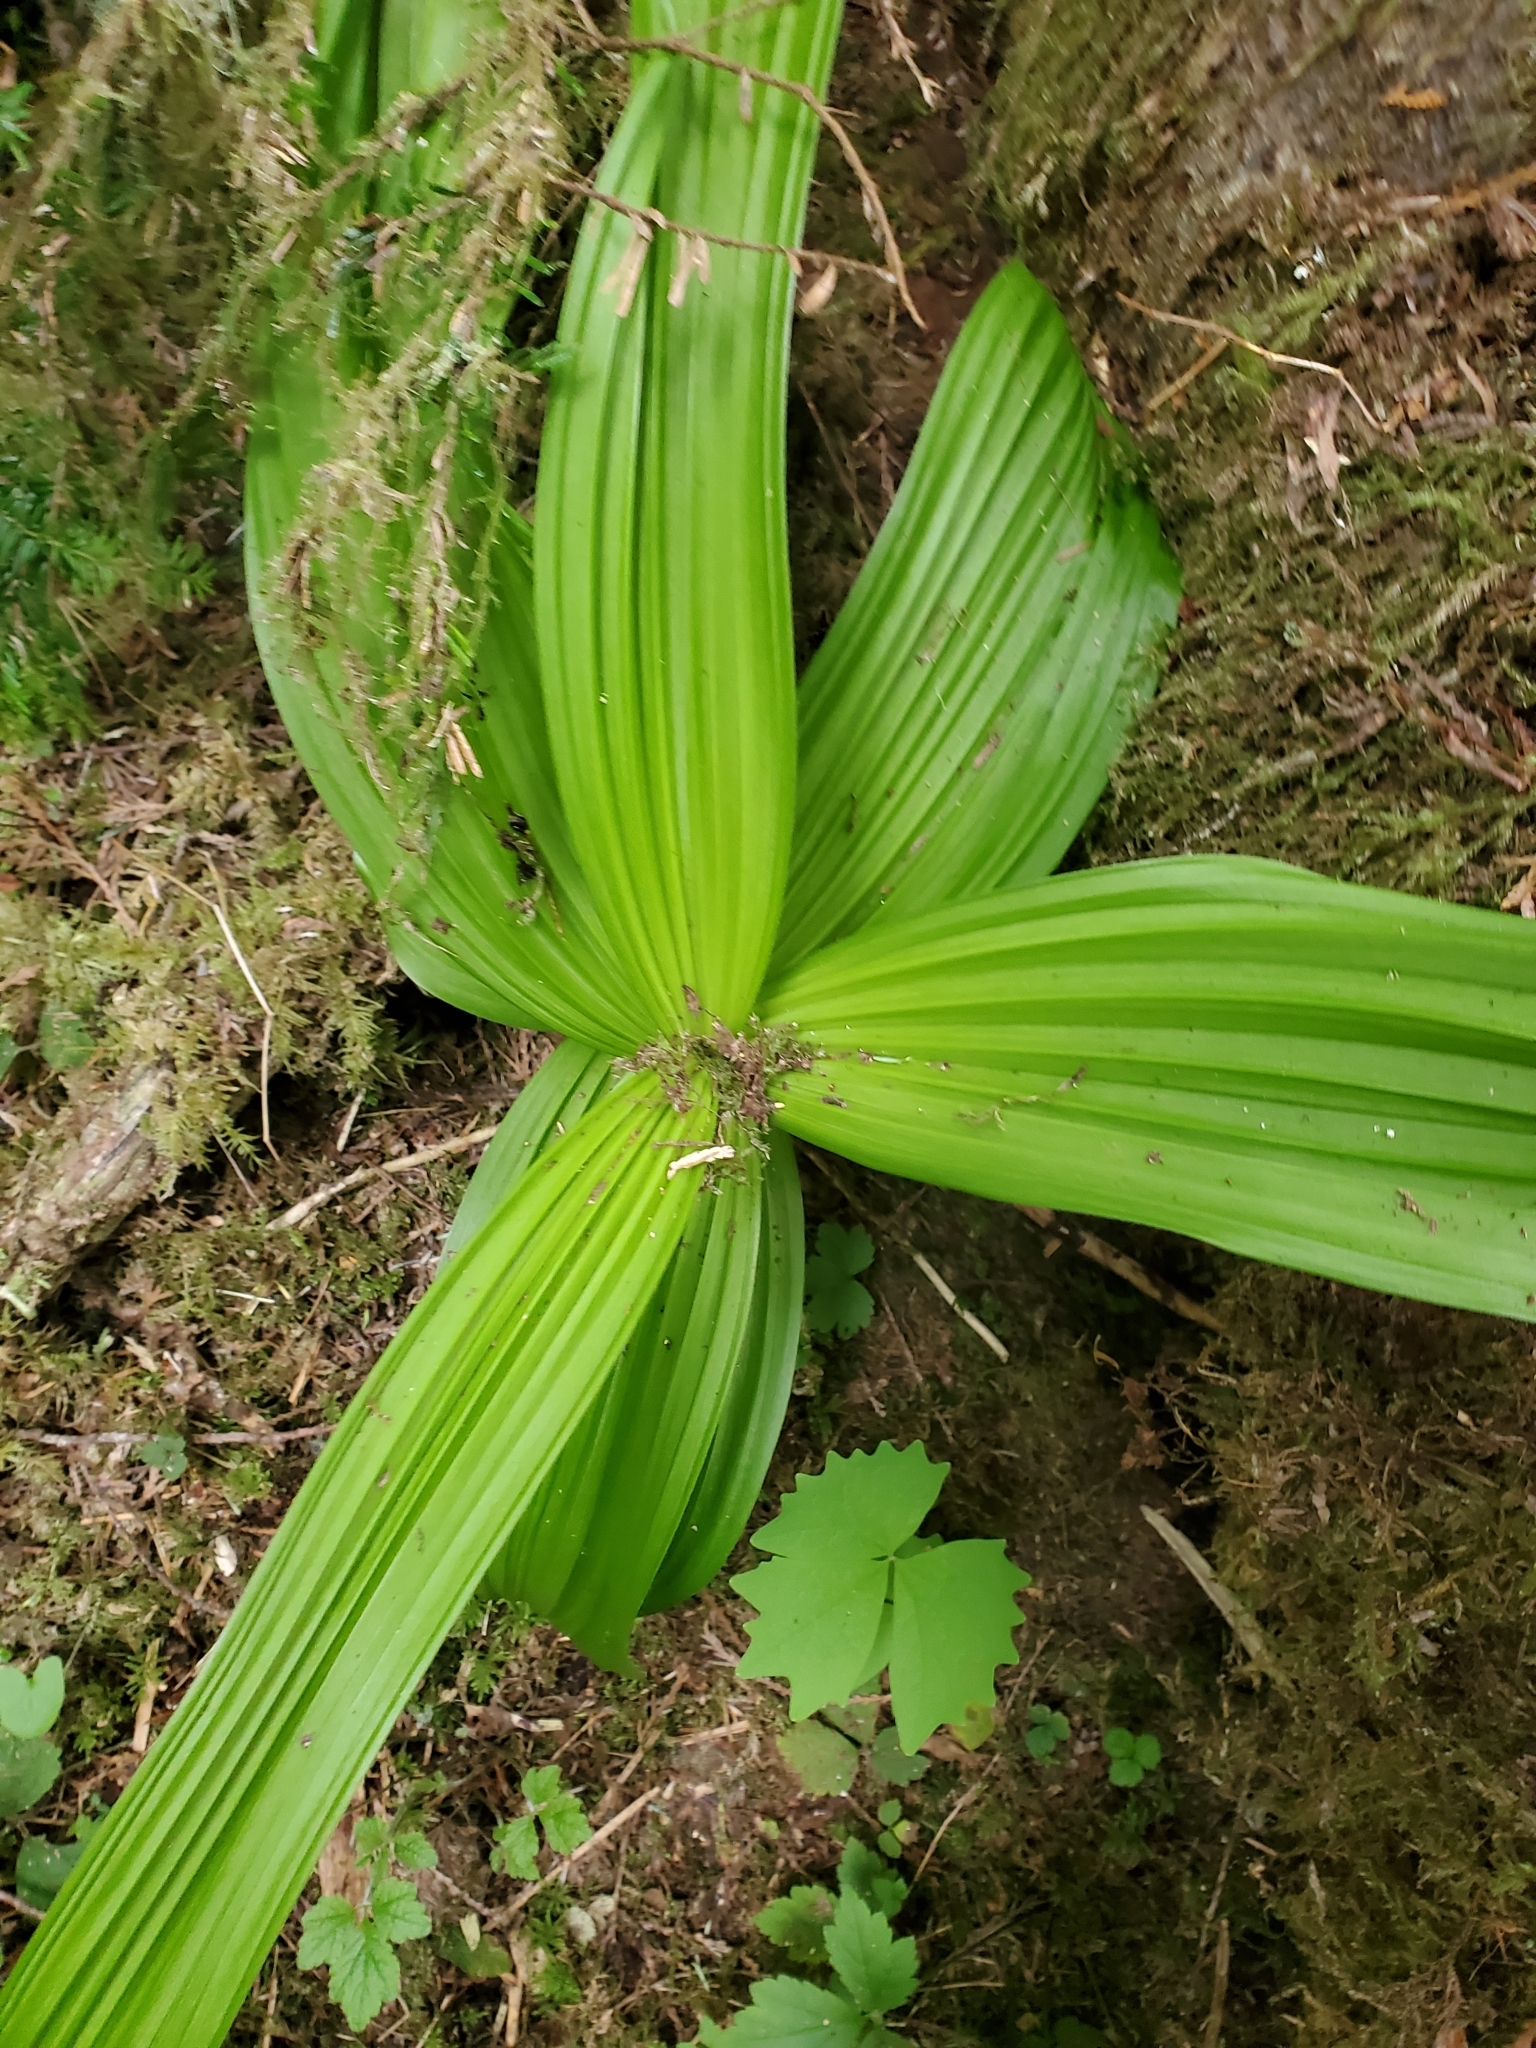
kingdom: Plantae
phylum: Tracheophyta
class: Liliopsida
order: Liliales
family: Melanthiaceae
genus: Veratrum
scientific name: Veratrum viride
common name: American false hellebore
